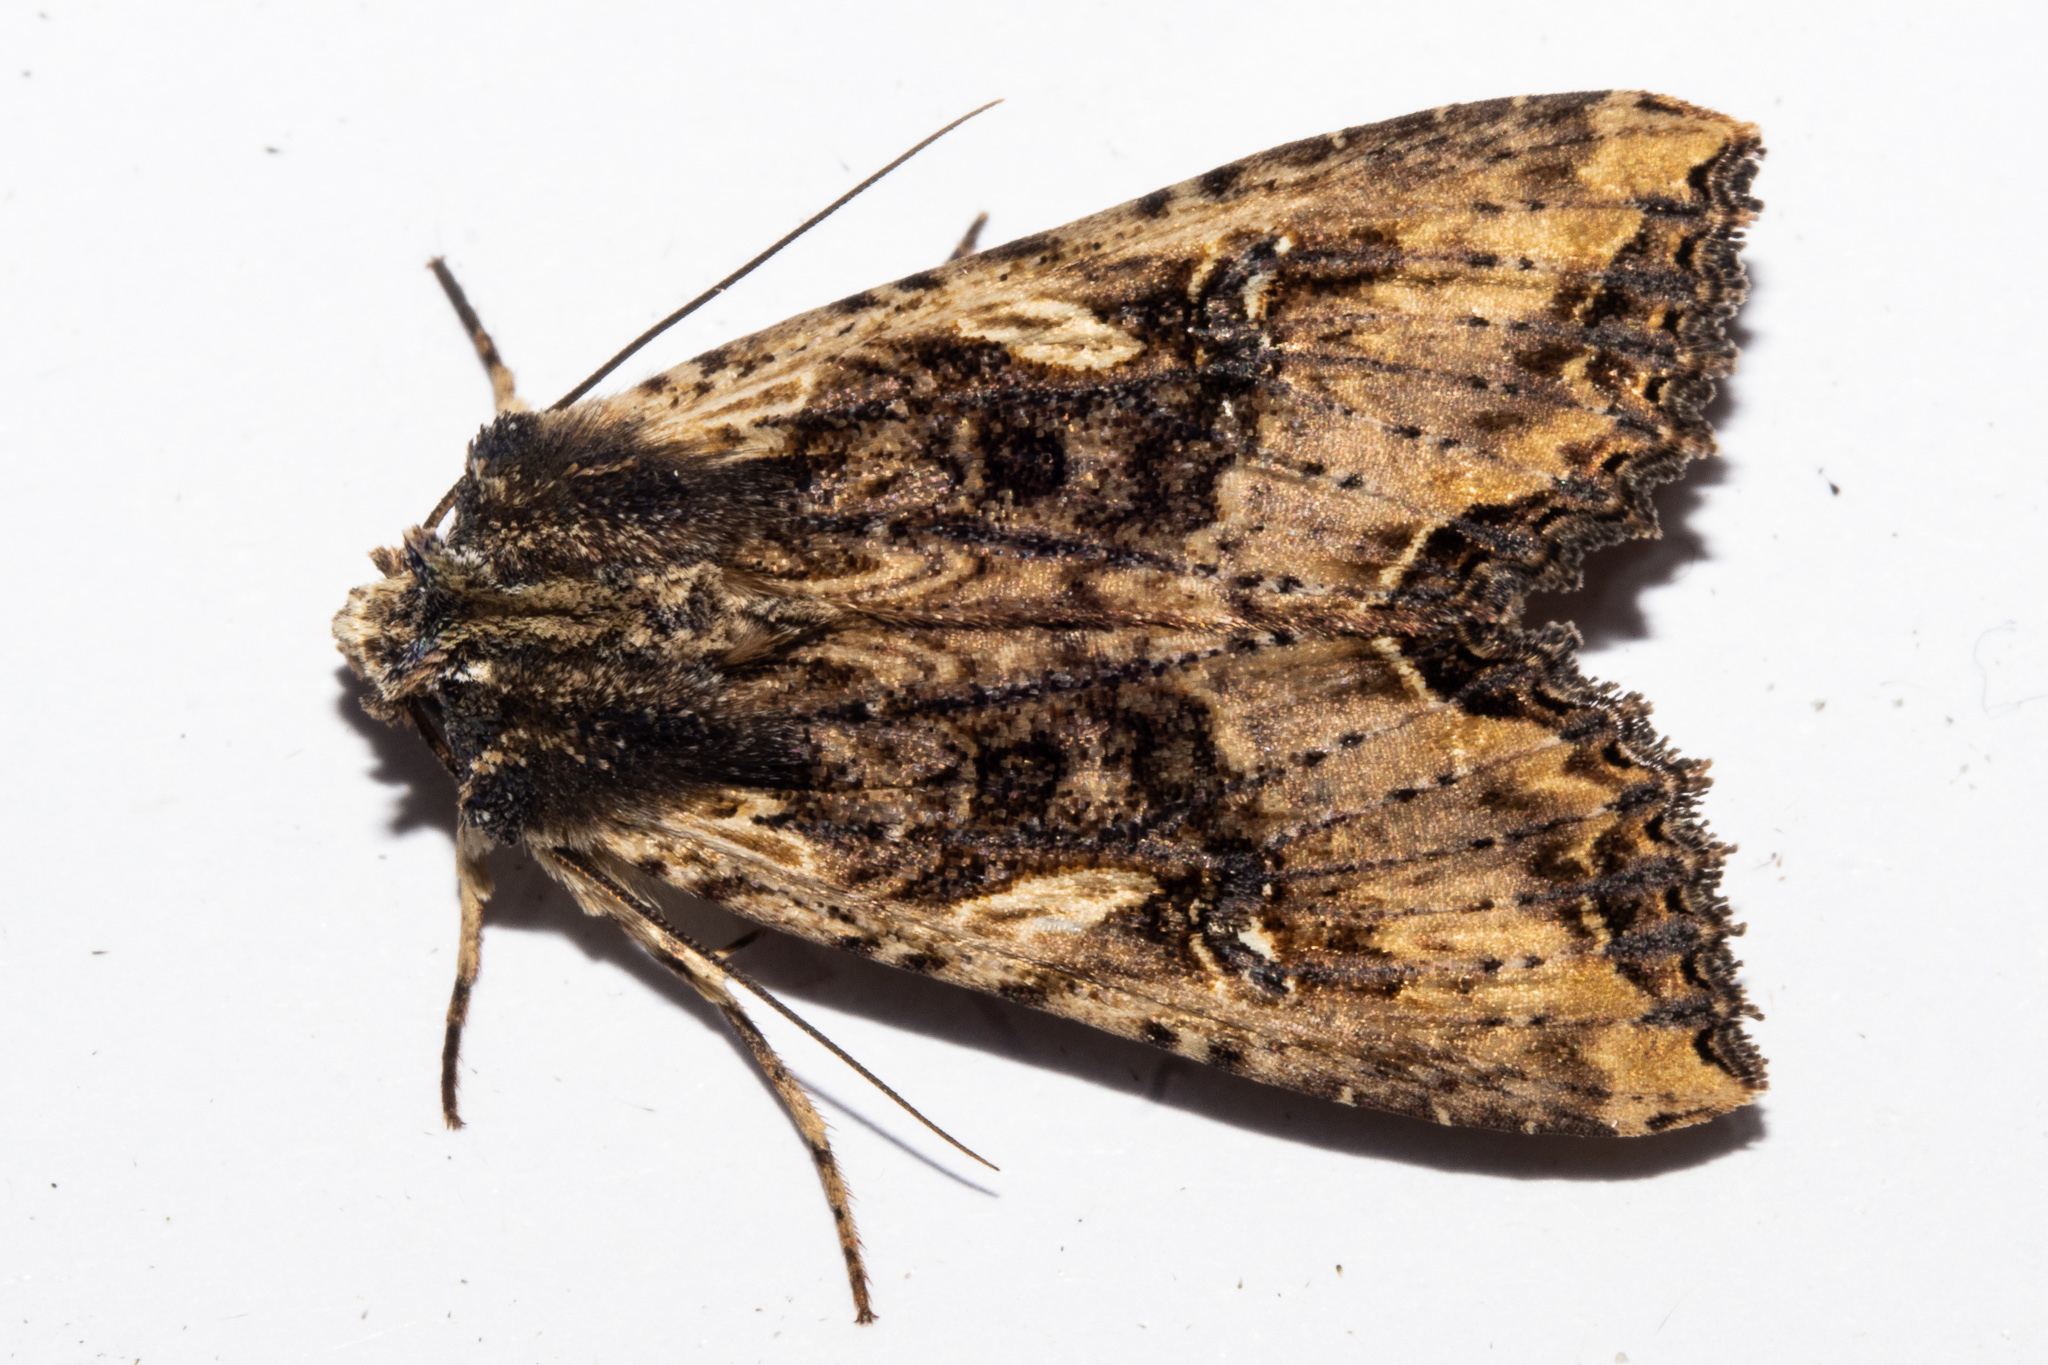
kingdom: Animalia
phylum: Arthropoda
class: Insecta
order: Lepidoptera
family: Noctuidae
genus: Meterana
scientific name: Meterana stipata
